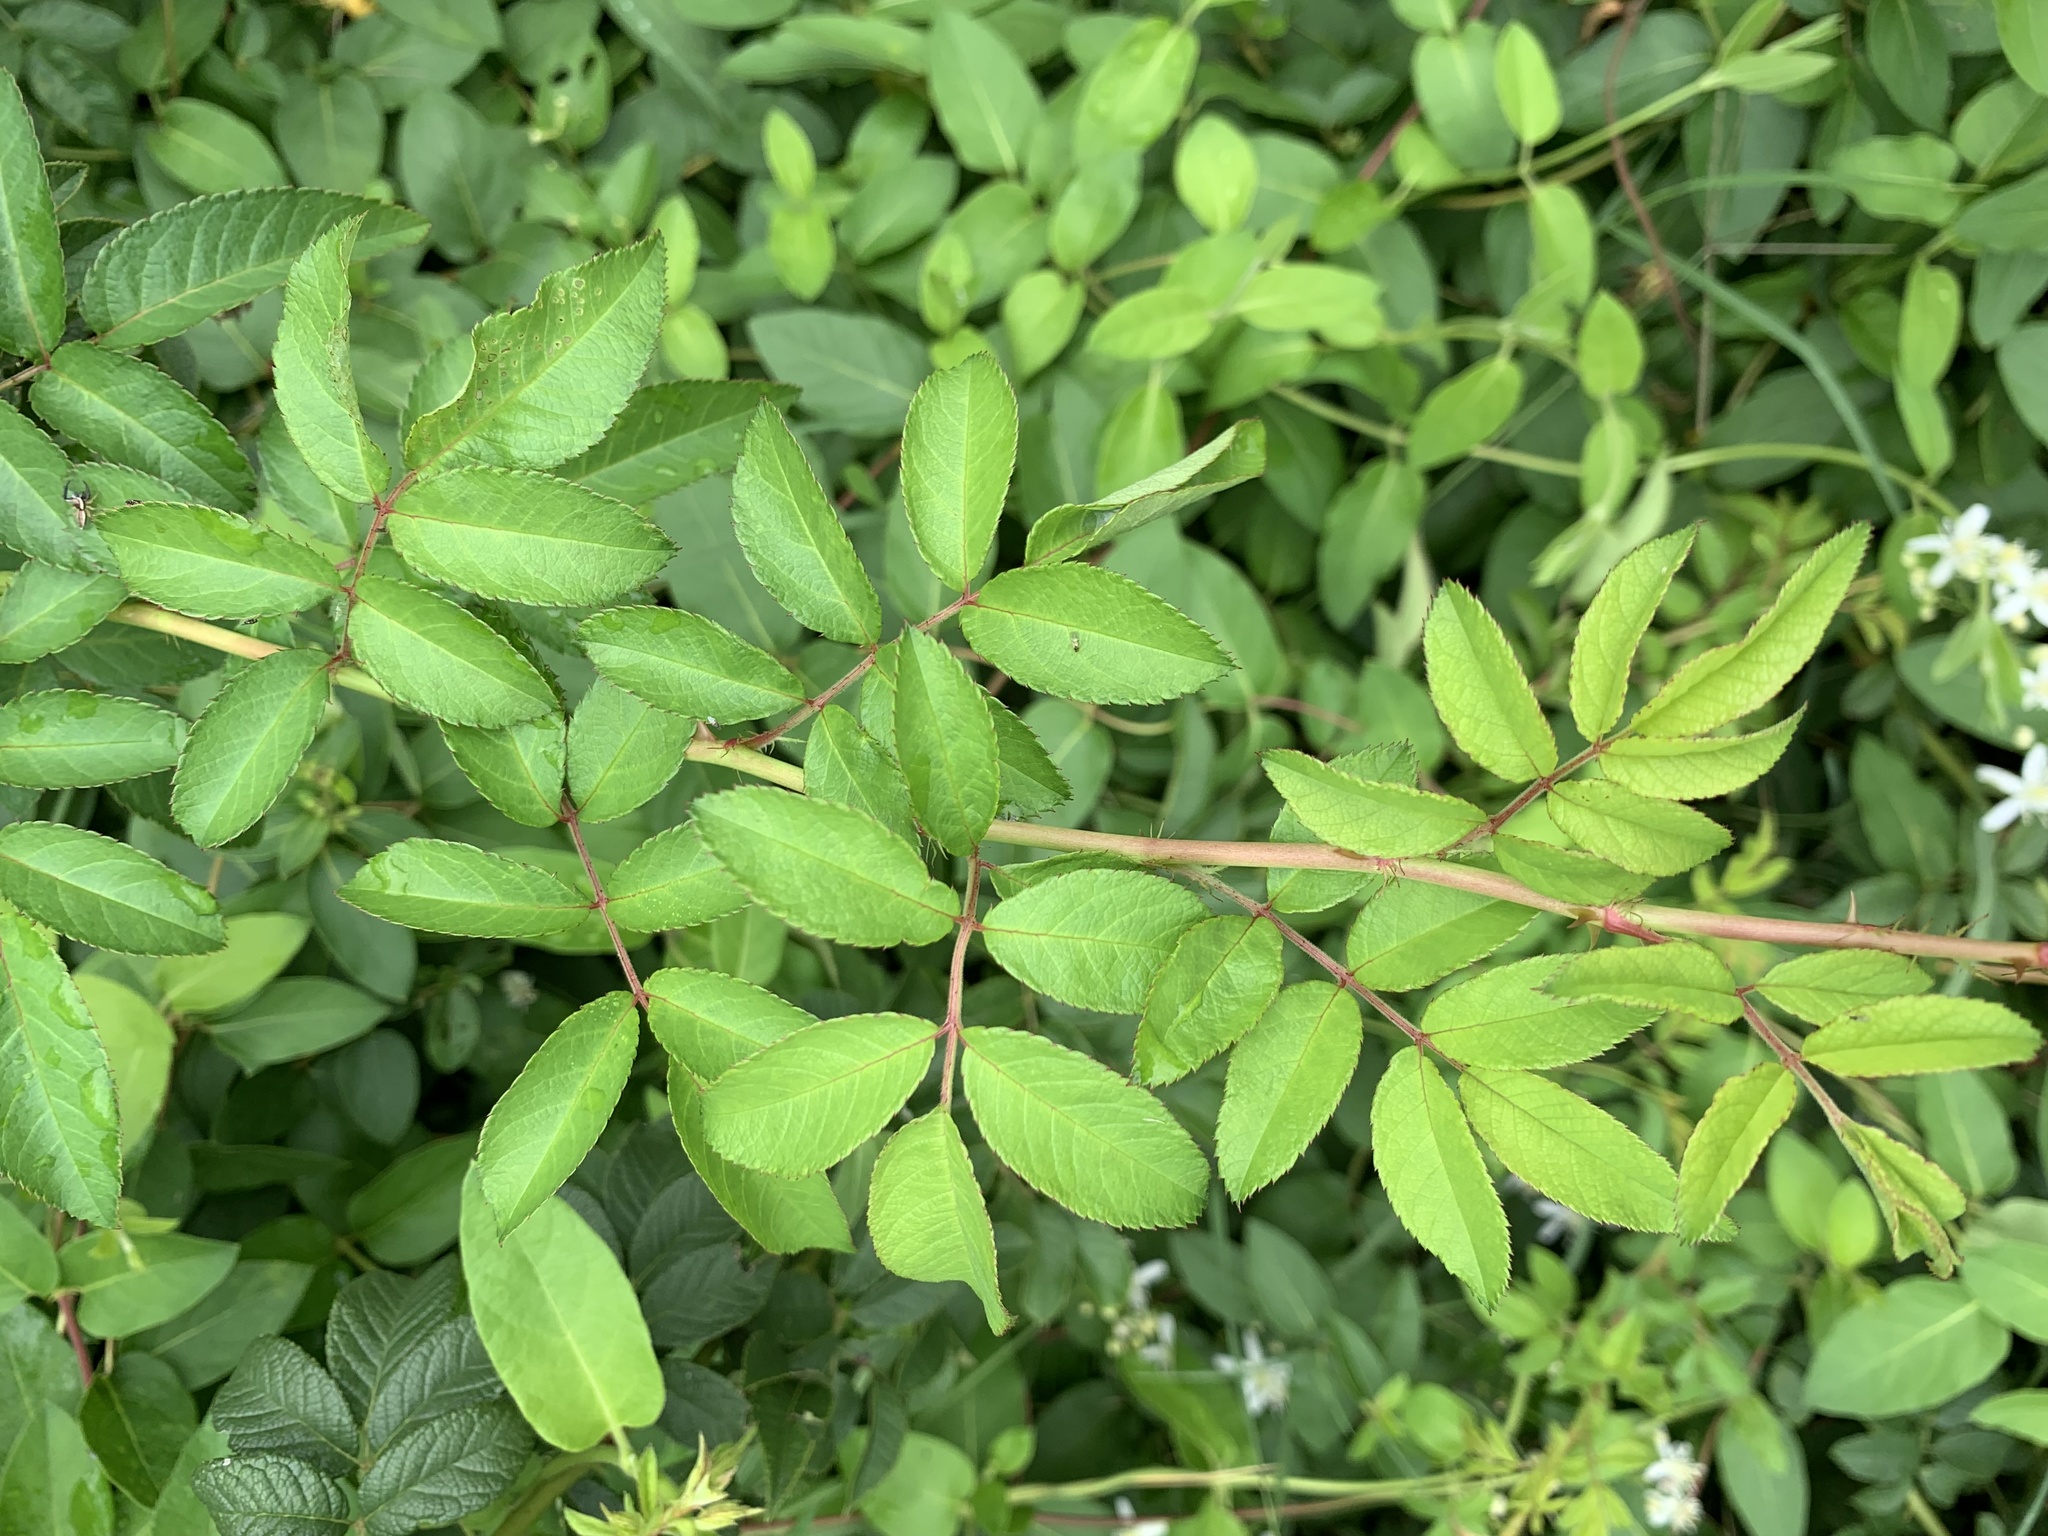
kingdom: Plantae
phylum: Tracheophyta
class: Magnoliopsida
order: Rosales
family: Rosaceae
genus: Rosa
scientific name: Rosa multiflora
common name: Multiflora rose
